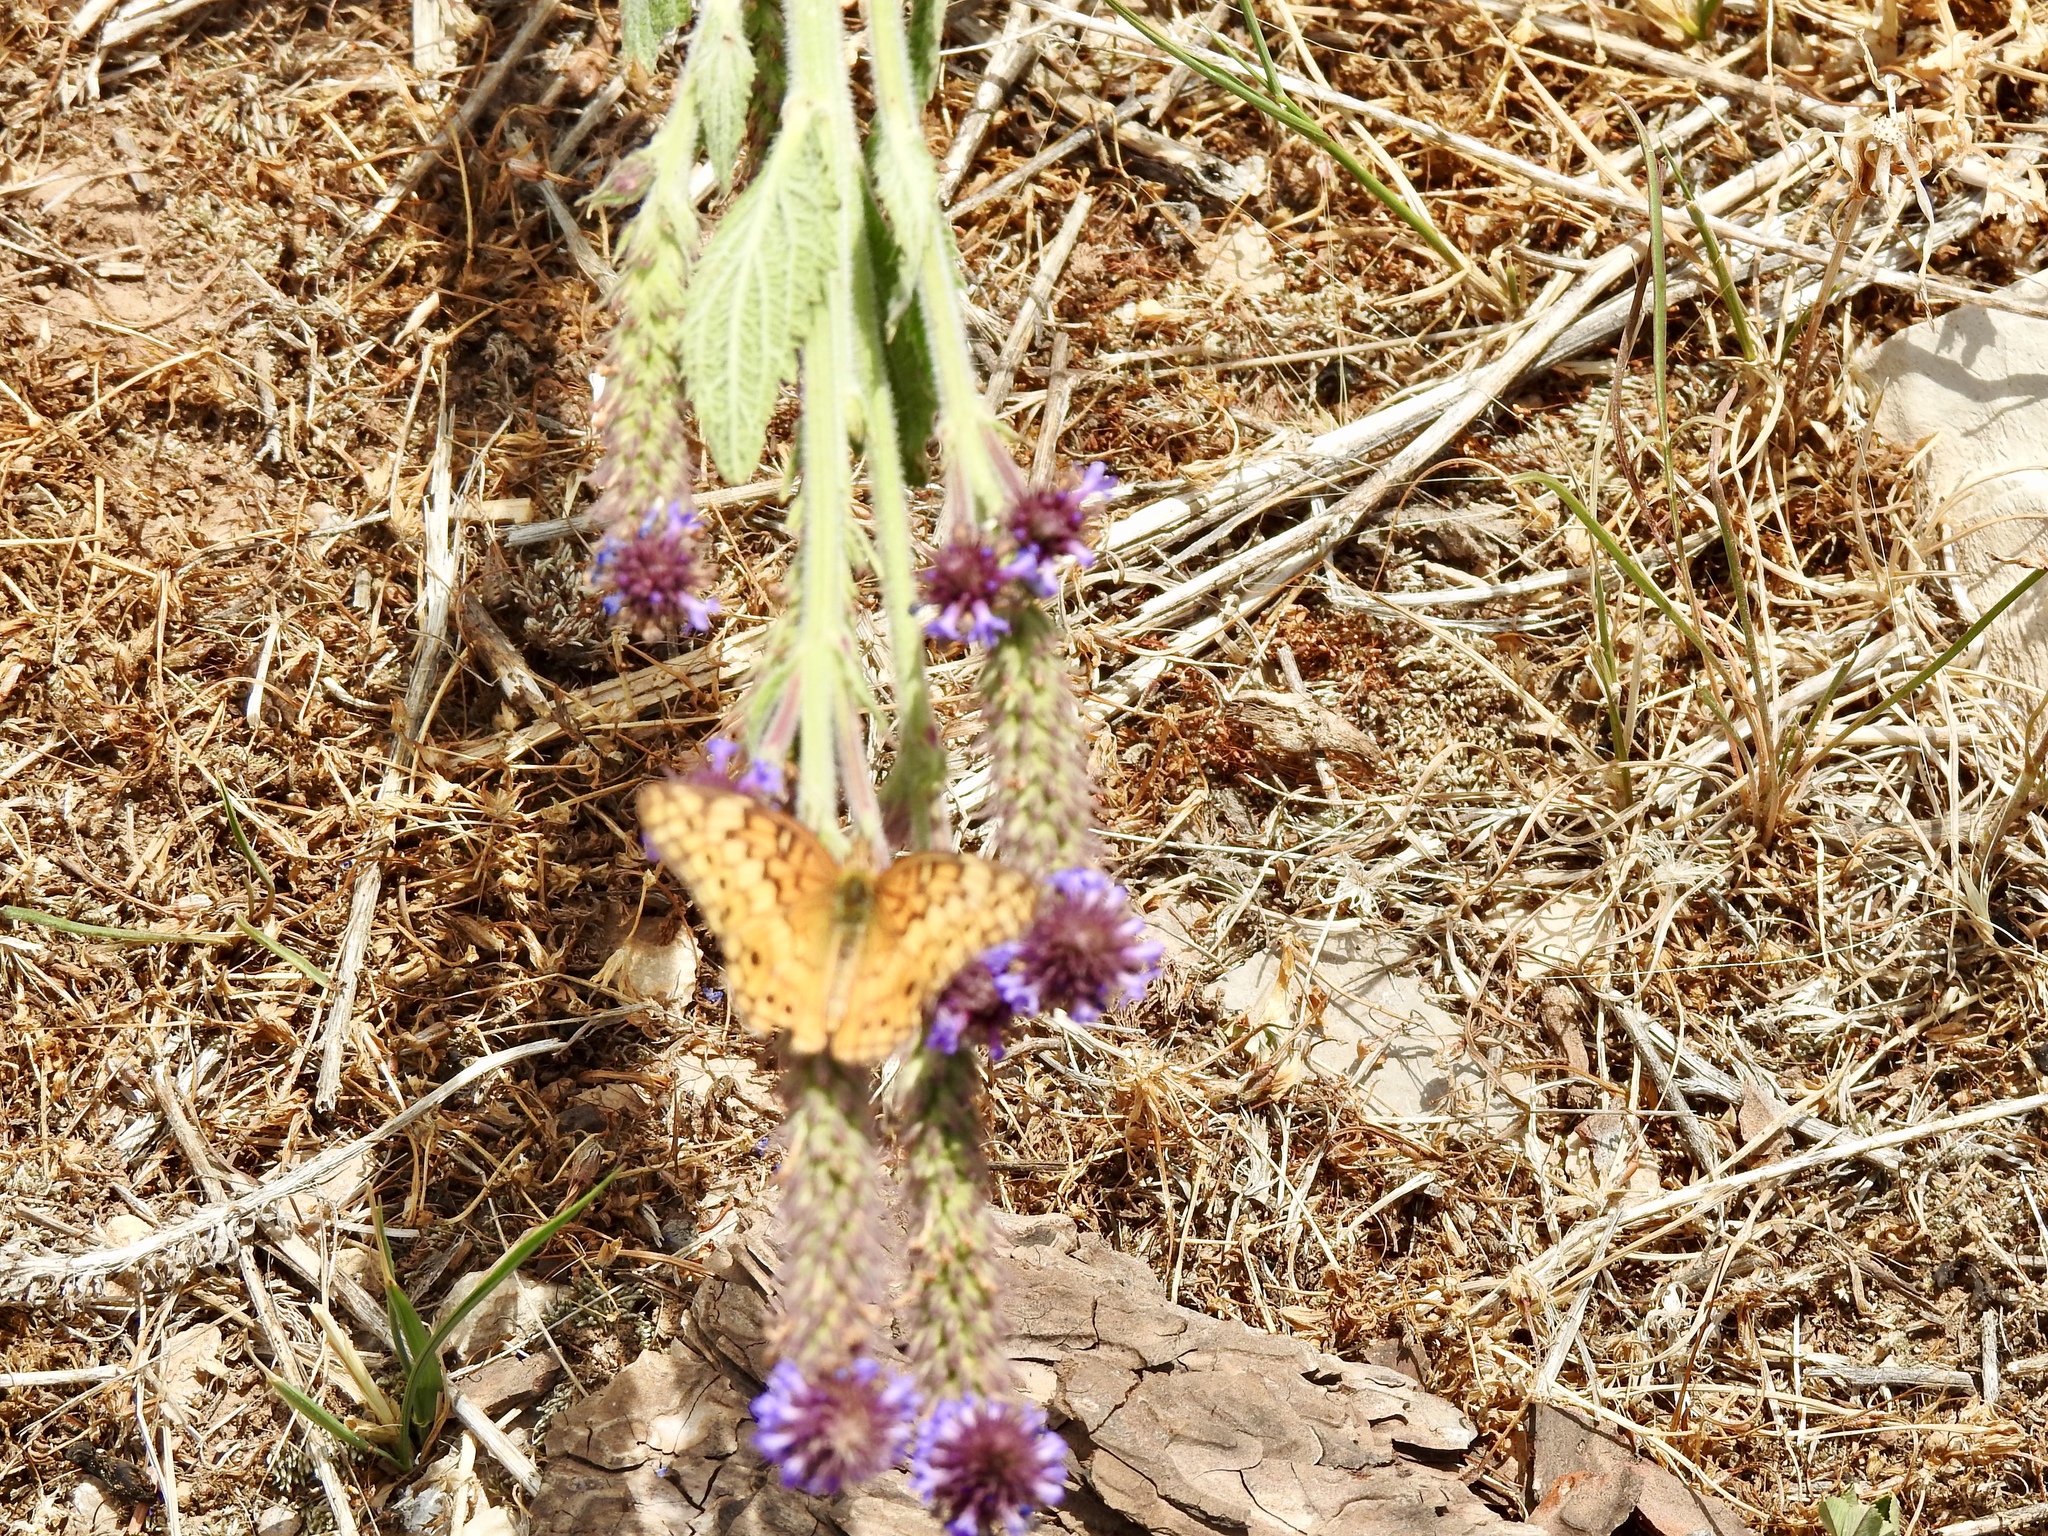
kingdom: Animalia
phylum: Arthropoda
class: Insecta
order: Lepidoptera
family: Nymphalidae
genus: Euptoieta
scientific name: Euptoieta claudia
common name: Variegated fritillary
